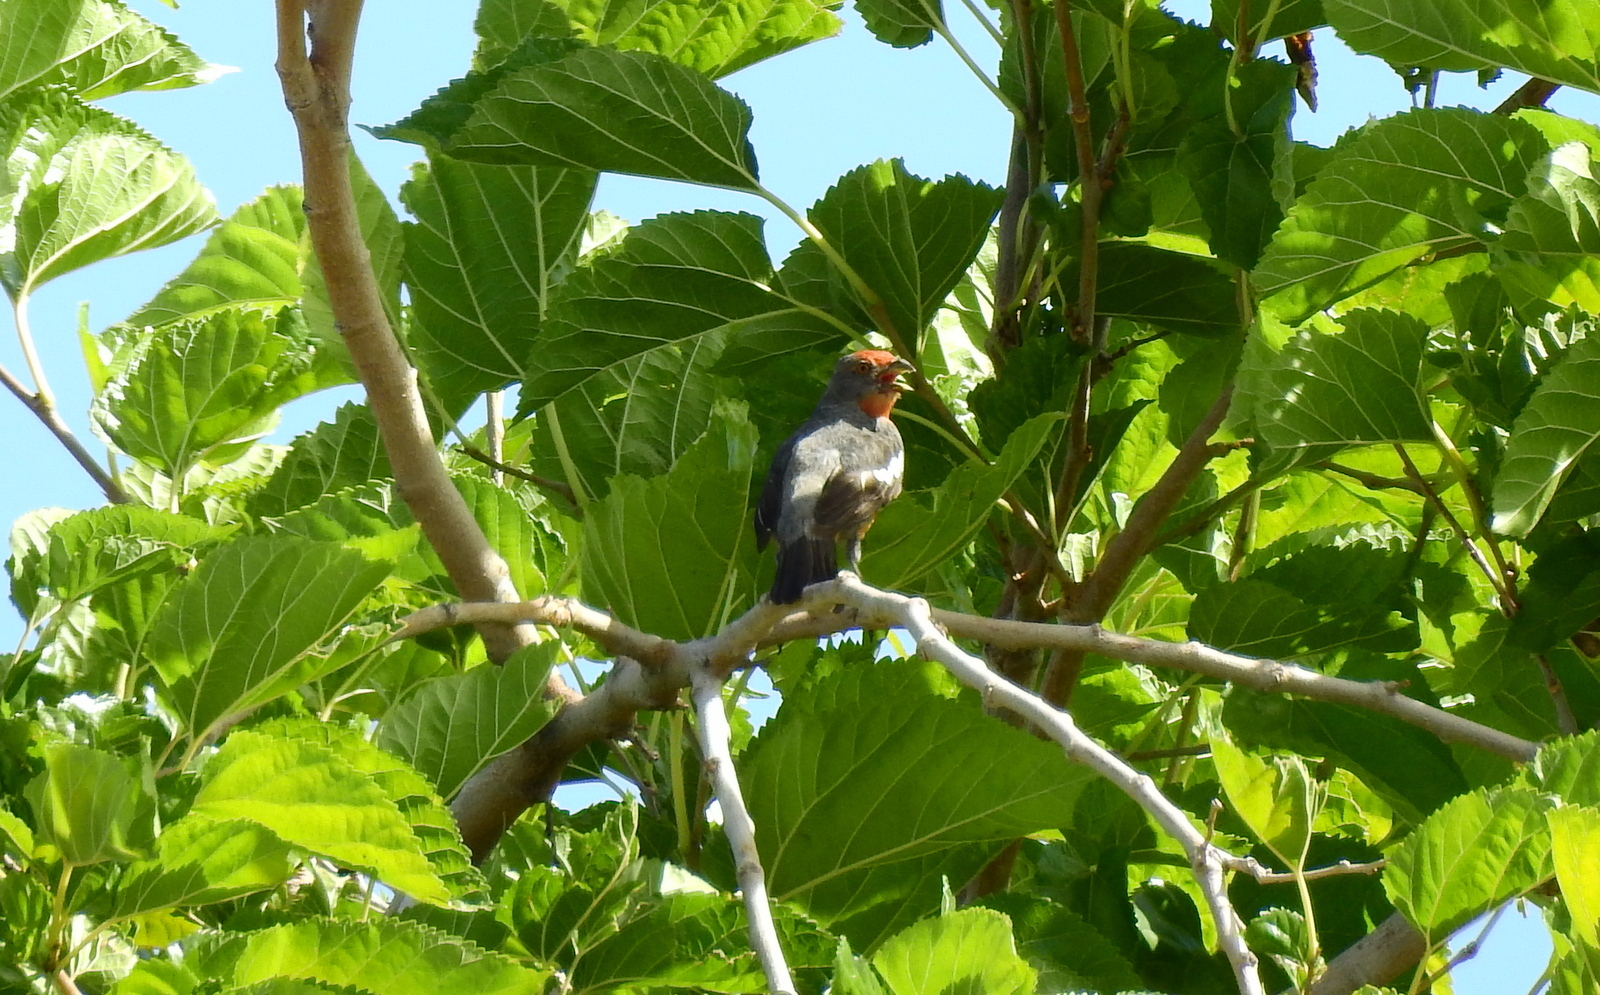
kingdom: Animalia
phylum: Chordata
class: Aves
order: Passeriformes
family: Cotingidae
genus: Phytotoma
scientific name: Phytotoma rutila
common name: White-tipped plantcutter
